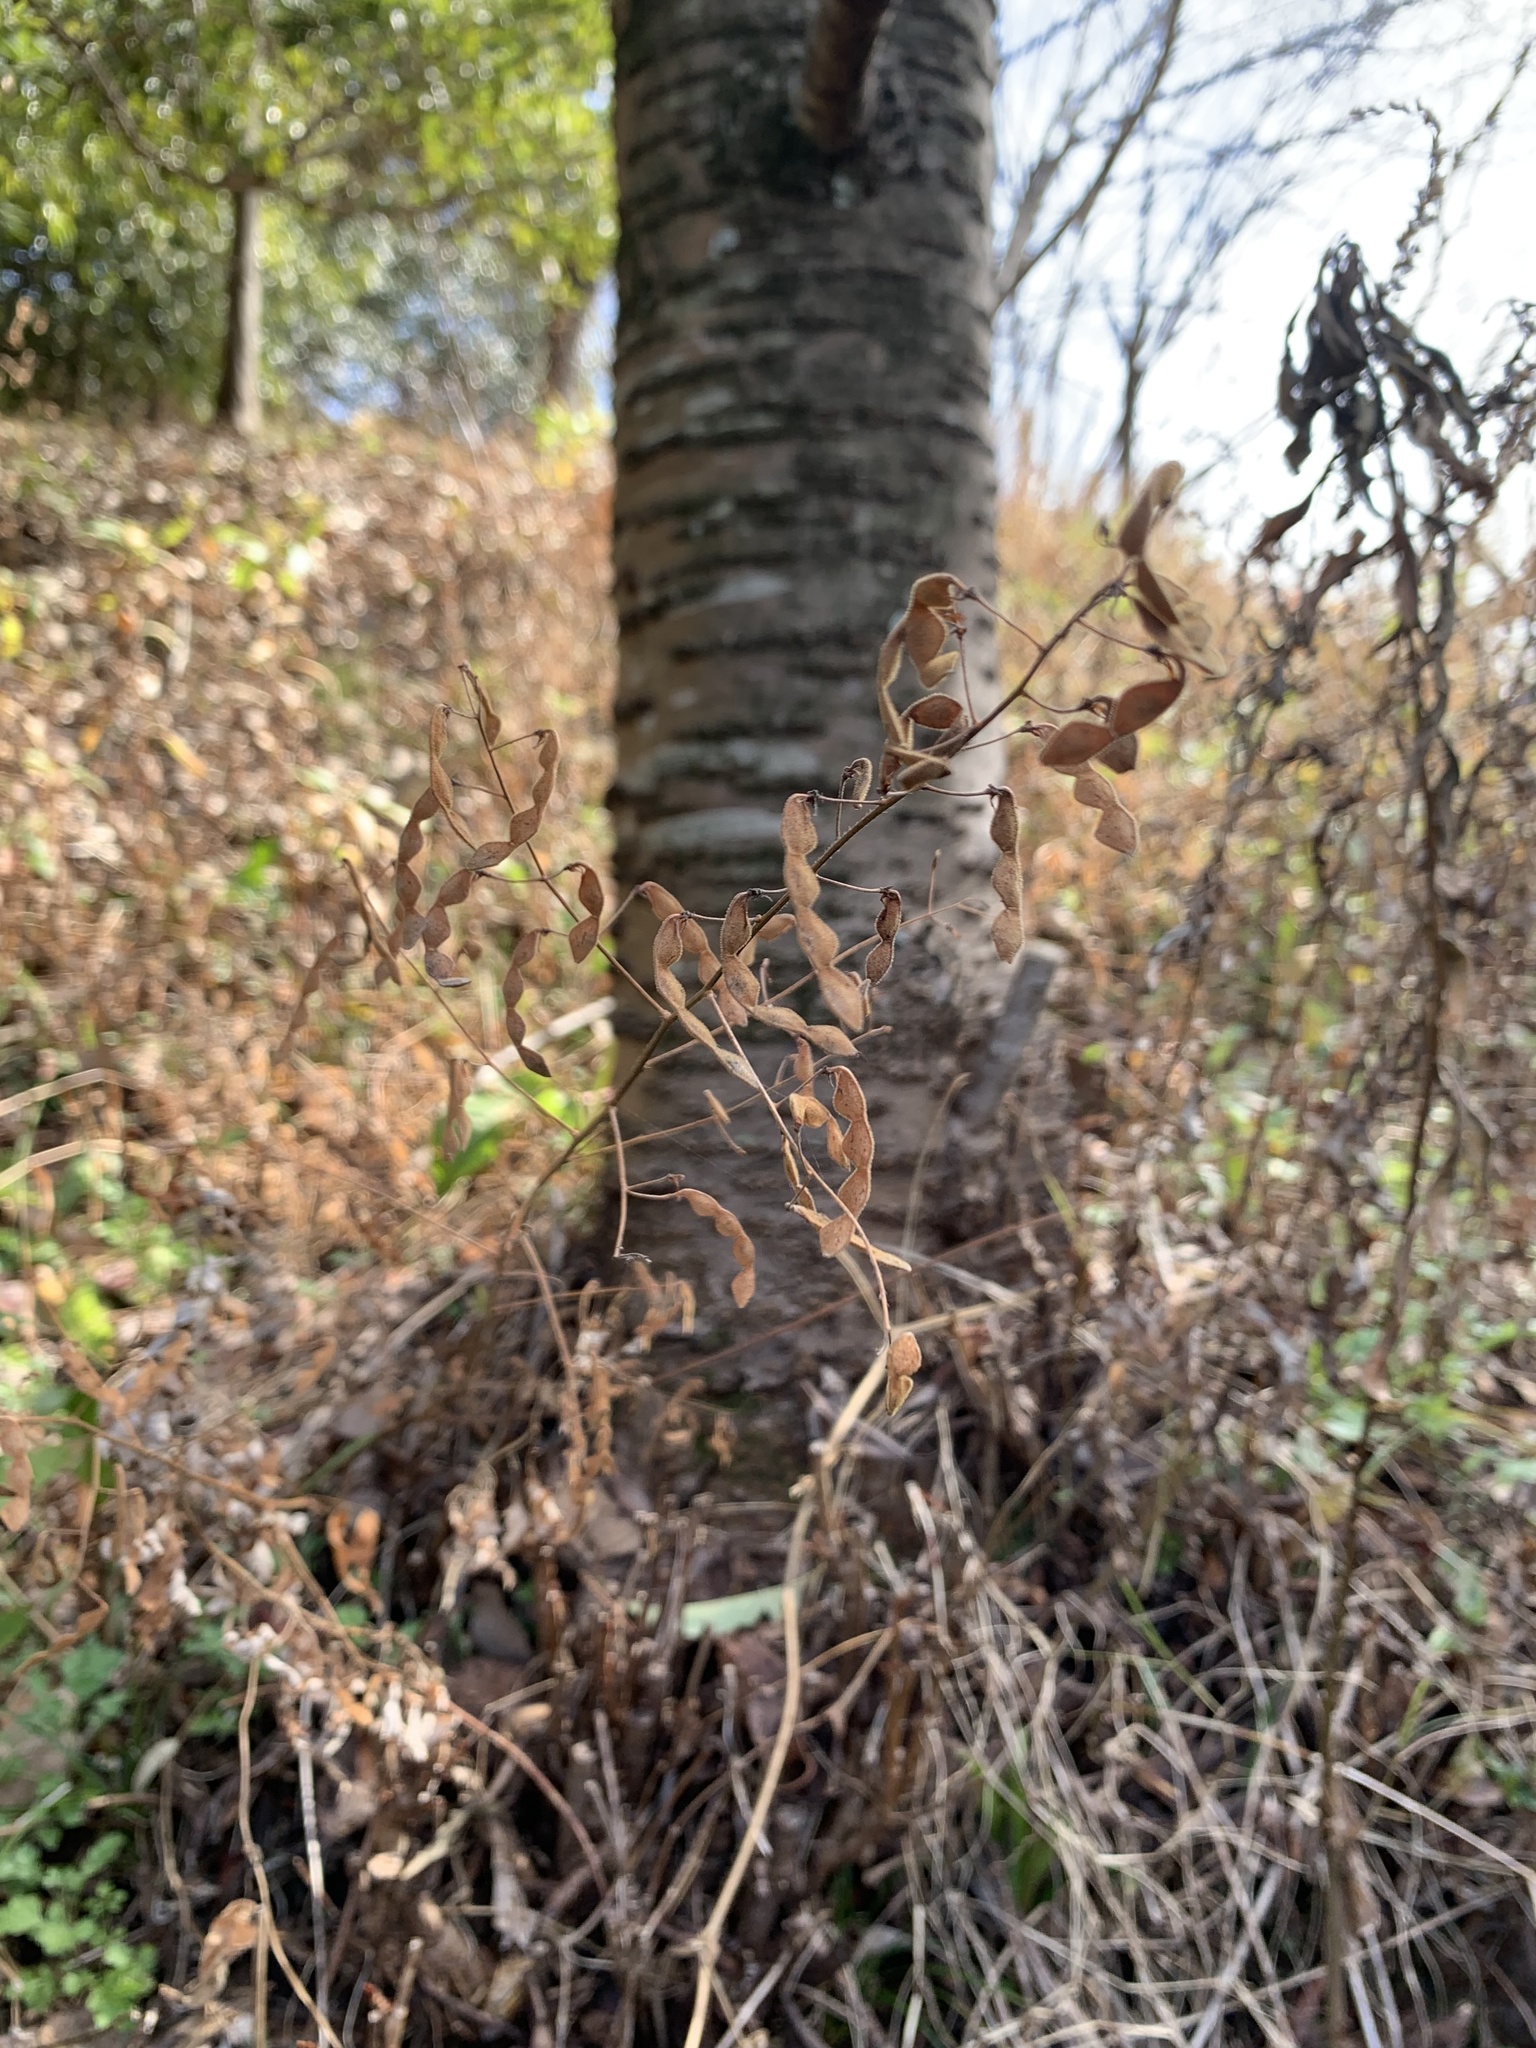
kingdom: Plantae
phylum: Tracheophyta
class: Magnoliopsida
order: Fabales
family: Fabaceae
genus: Desmodium
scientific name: Desmodium paniculatum
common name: Panicled tick-clover
